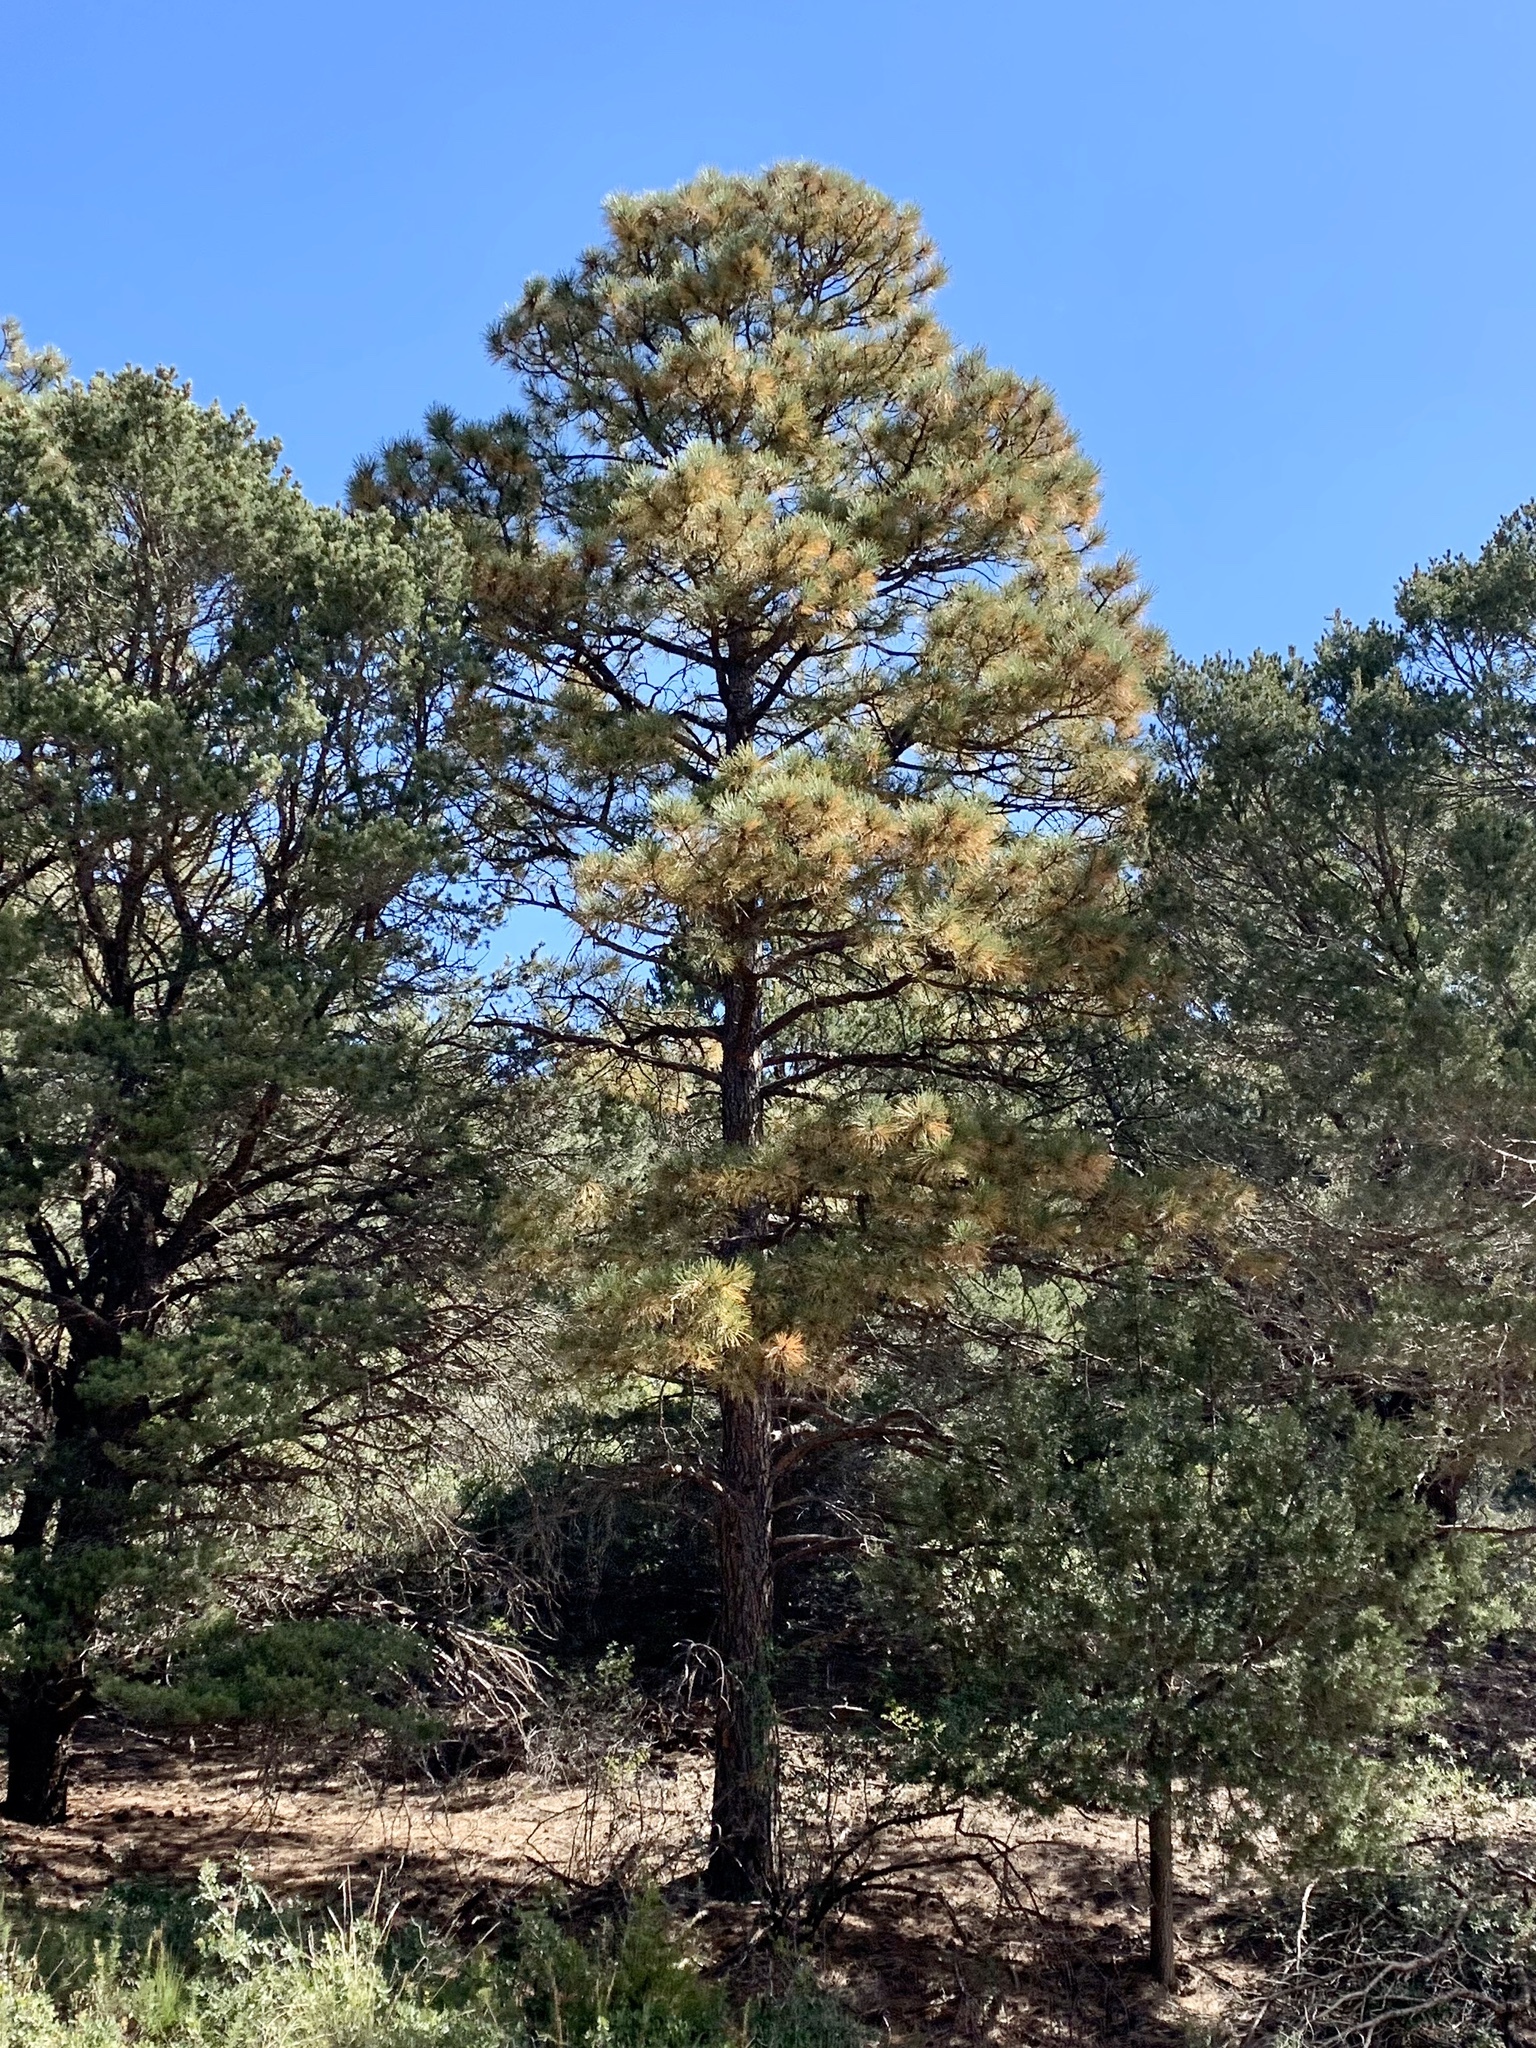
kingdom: Plantae
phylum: Tracheophyta
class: Pinopsida
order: Pinales
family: Pinaceae
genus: Pinus
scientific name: Pinus ponderosa
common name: Western yellow-pine
